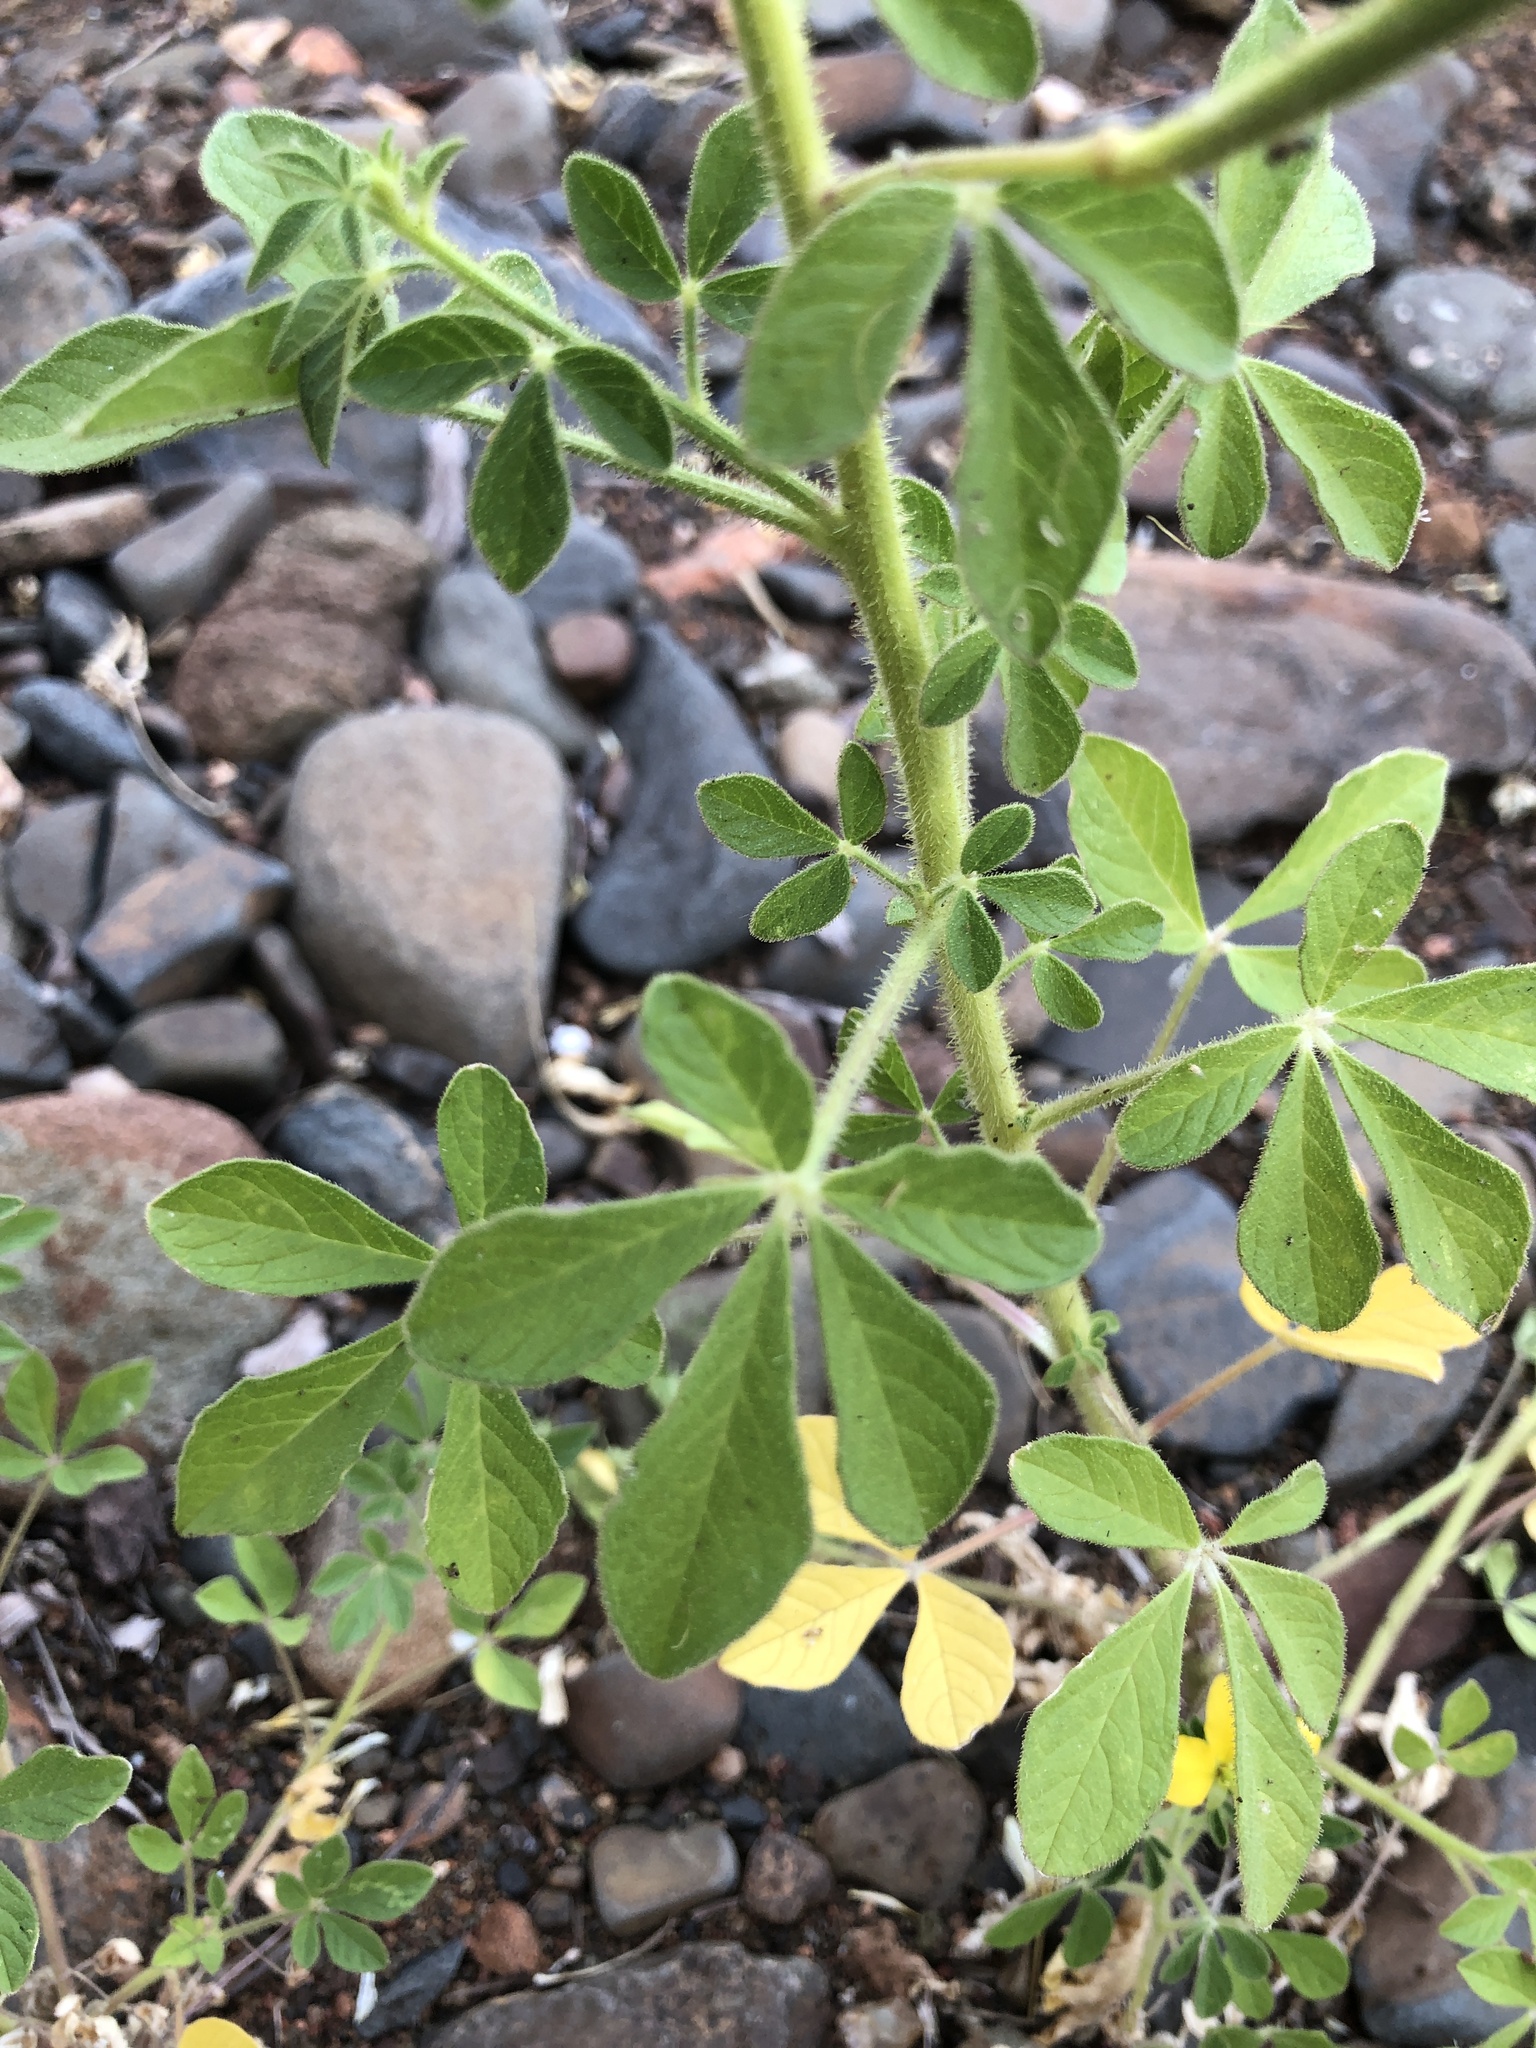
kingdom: Plantae
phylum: Tracheophyta
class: Magnoliopsida
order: Brassicales
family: Cleomaceae
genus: Arivela
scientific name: Arivela viscosa
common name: Asian spiderflower
